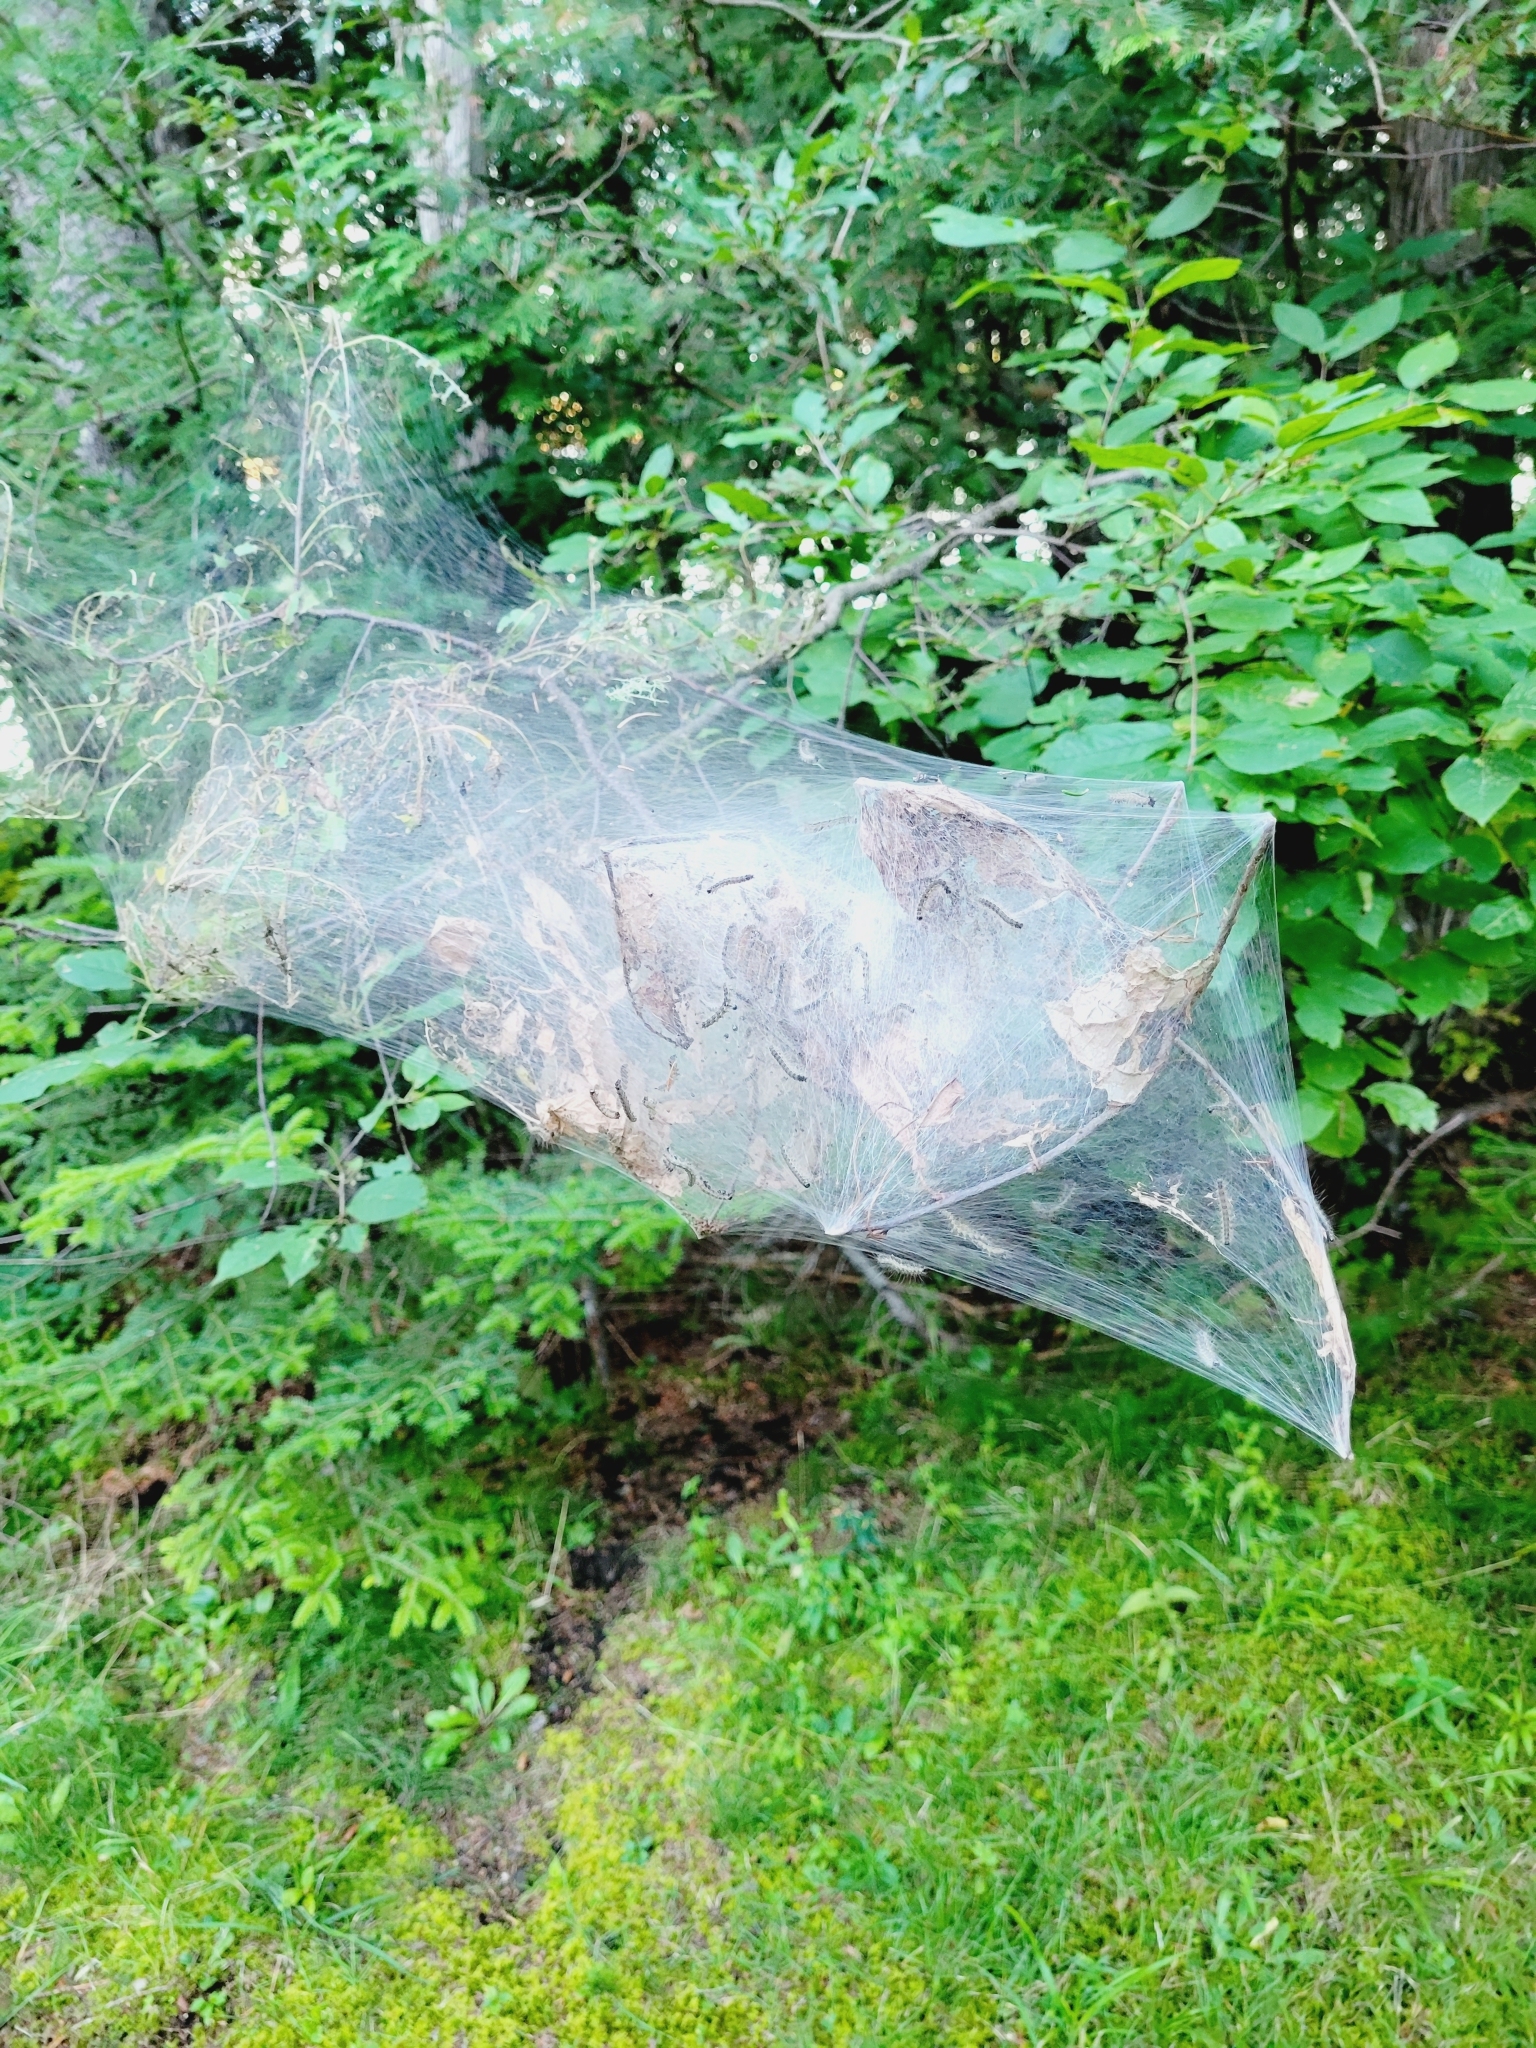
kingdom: Animalia
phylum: Arthropoda
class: Insecta
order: Lepidoptera
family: Erebidae
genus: Hyphantria
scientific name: Hyphantria cunea
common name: American white moth
